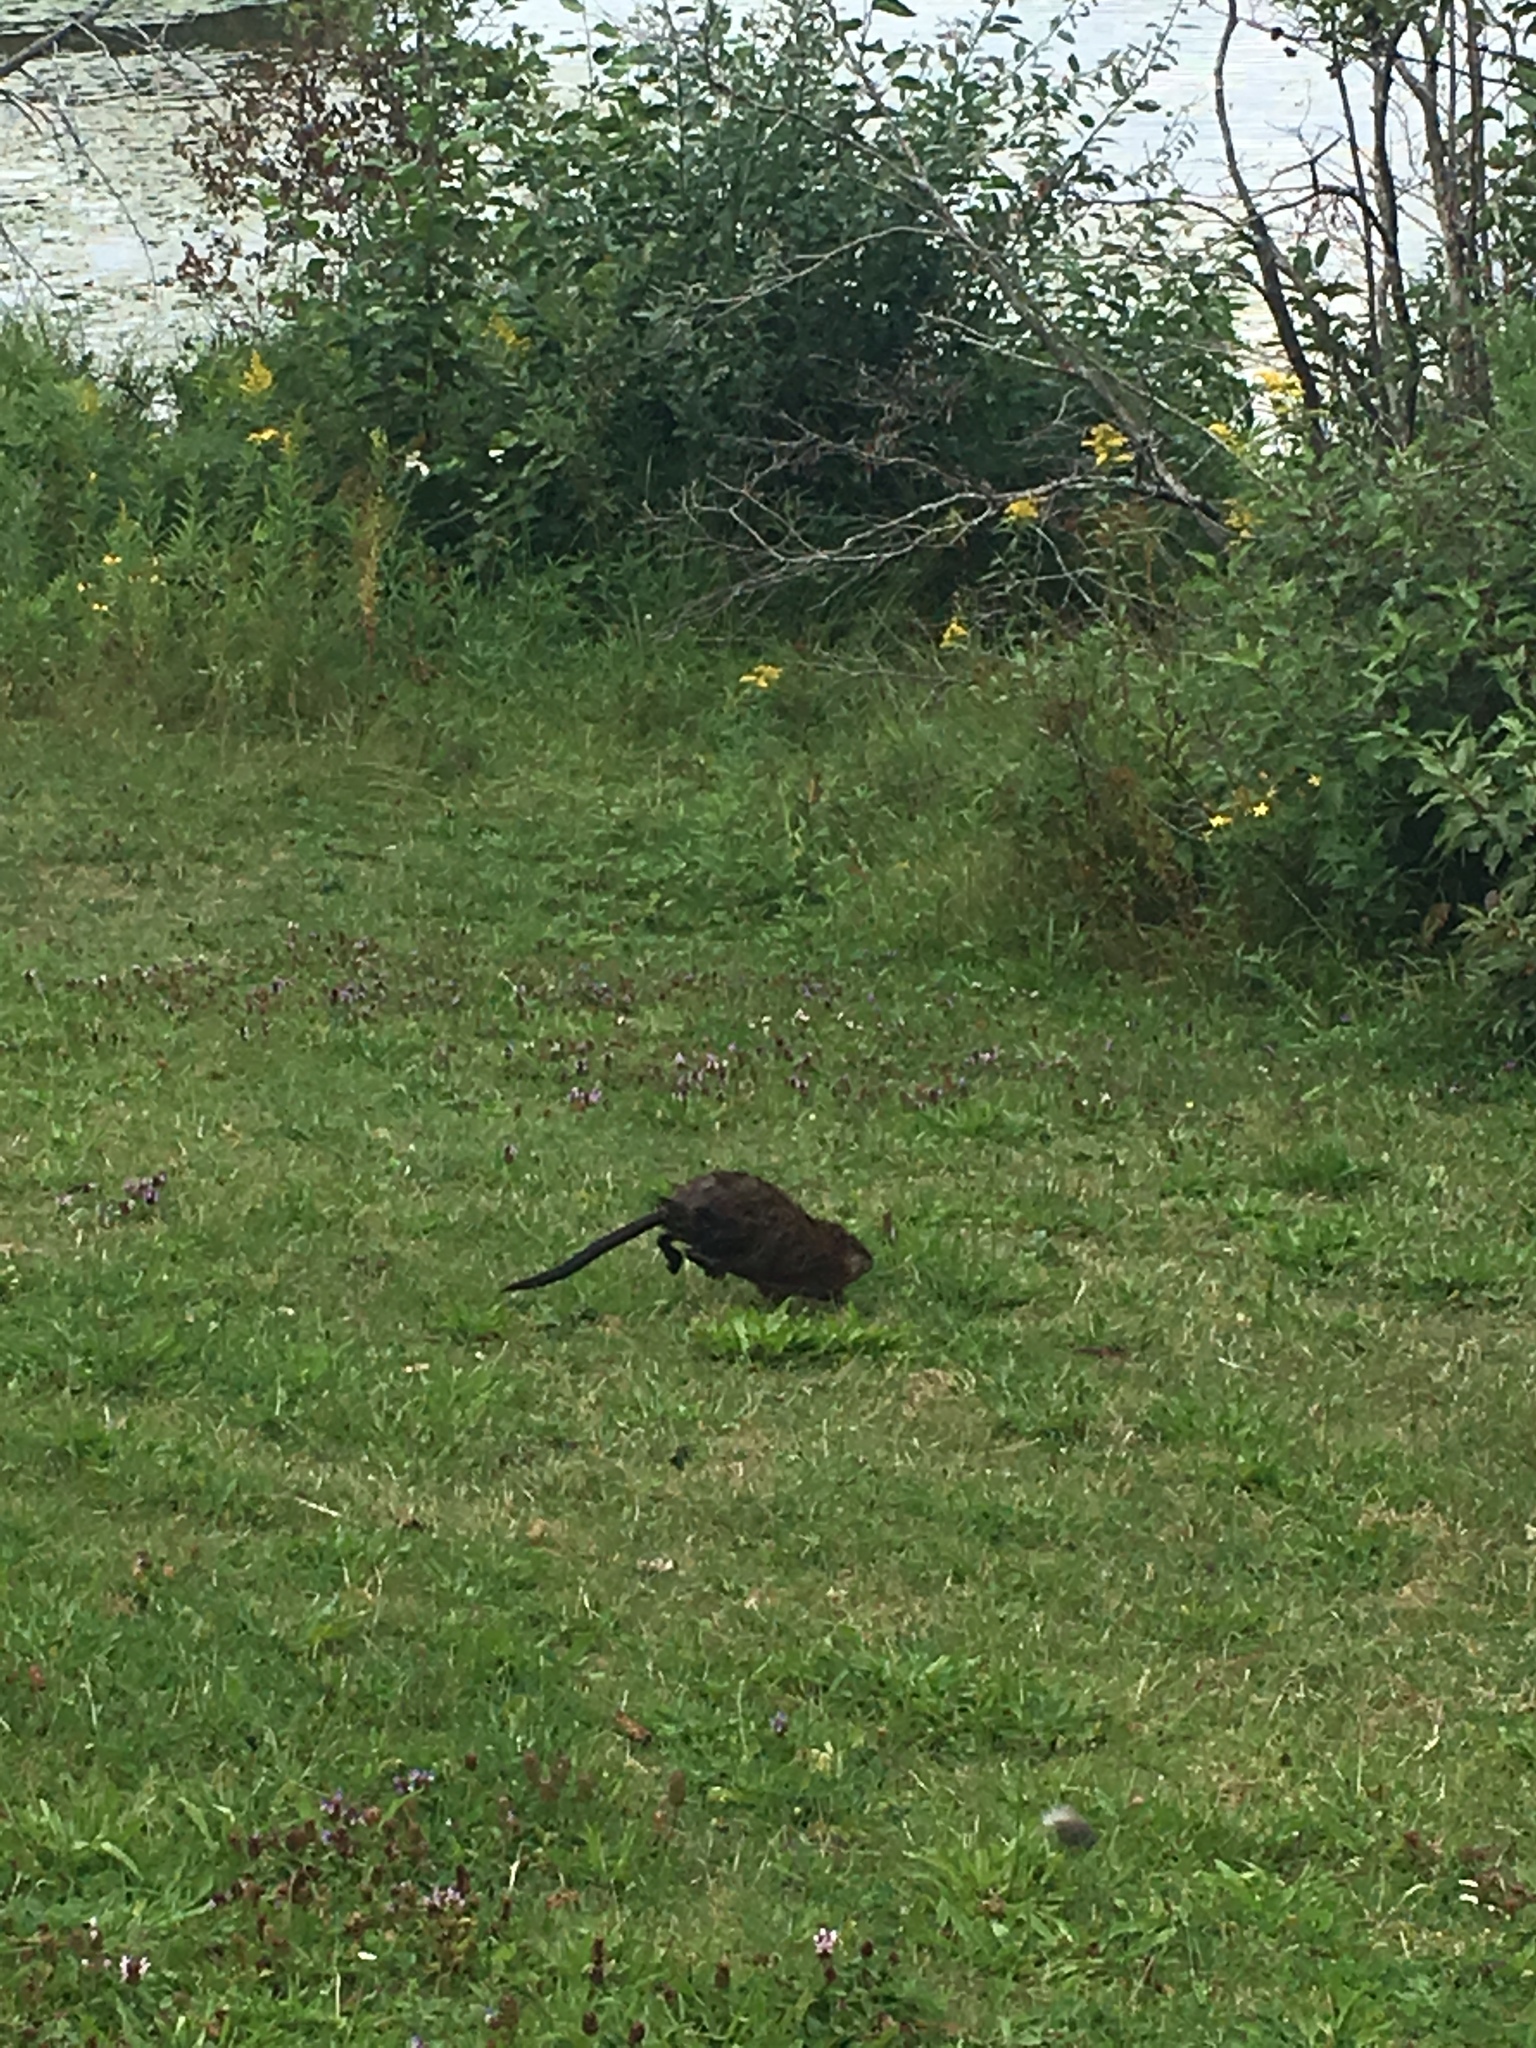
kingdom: Animalia
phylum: Chordata
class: Mammalia
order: Rodentia
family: Cricetidae
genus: Ondatra
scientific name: Ondatra zibethicus
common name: Muskrat
